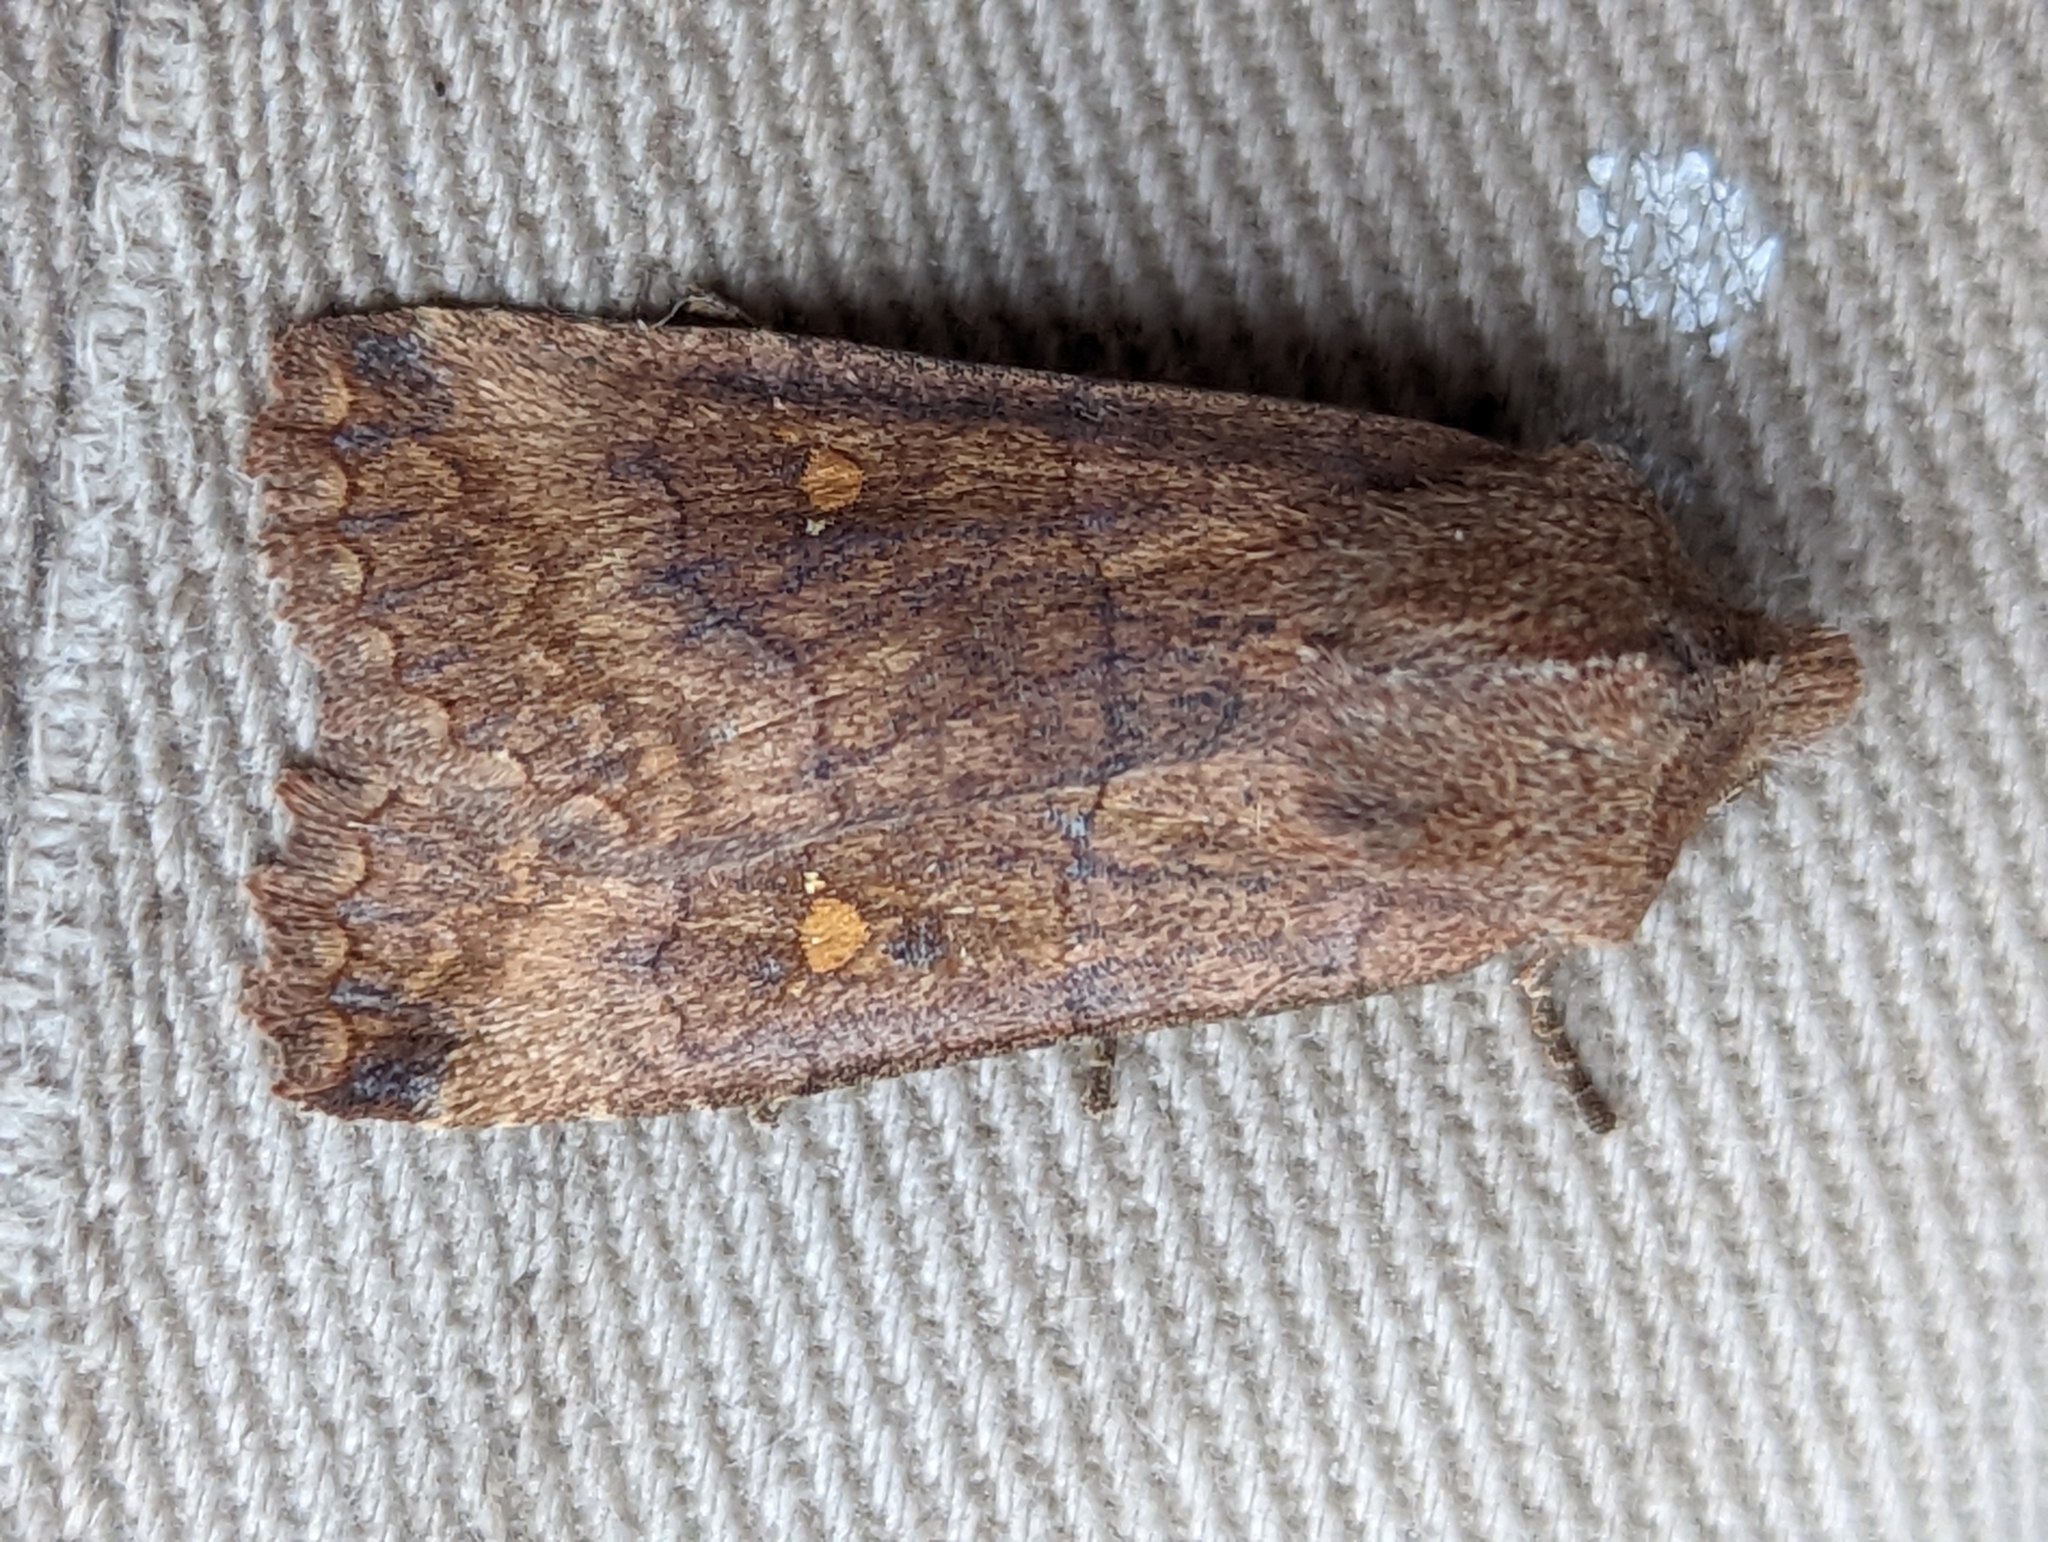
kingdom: Animalia
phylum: Arthropoda
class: Insecta
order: Lepidoptera
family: Noctuidae
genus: Eupsilia
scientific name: Eupsilia transversa
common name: Satellite
